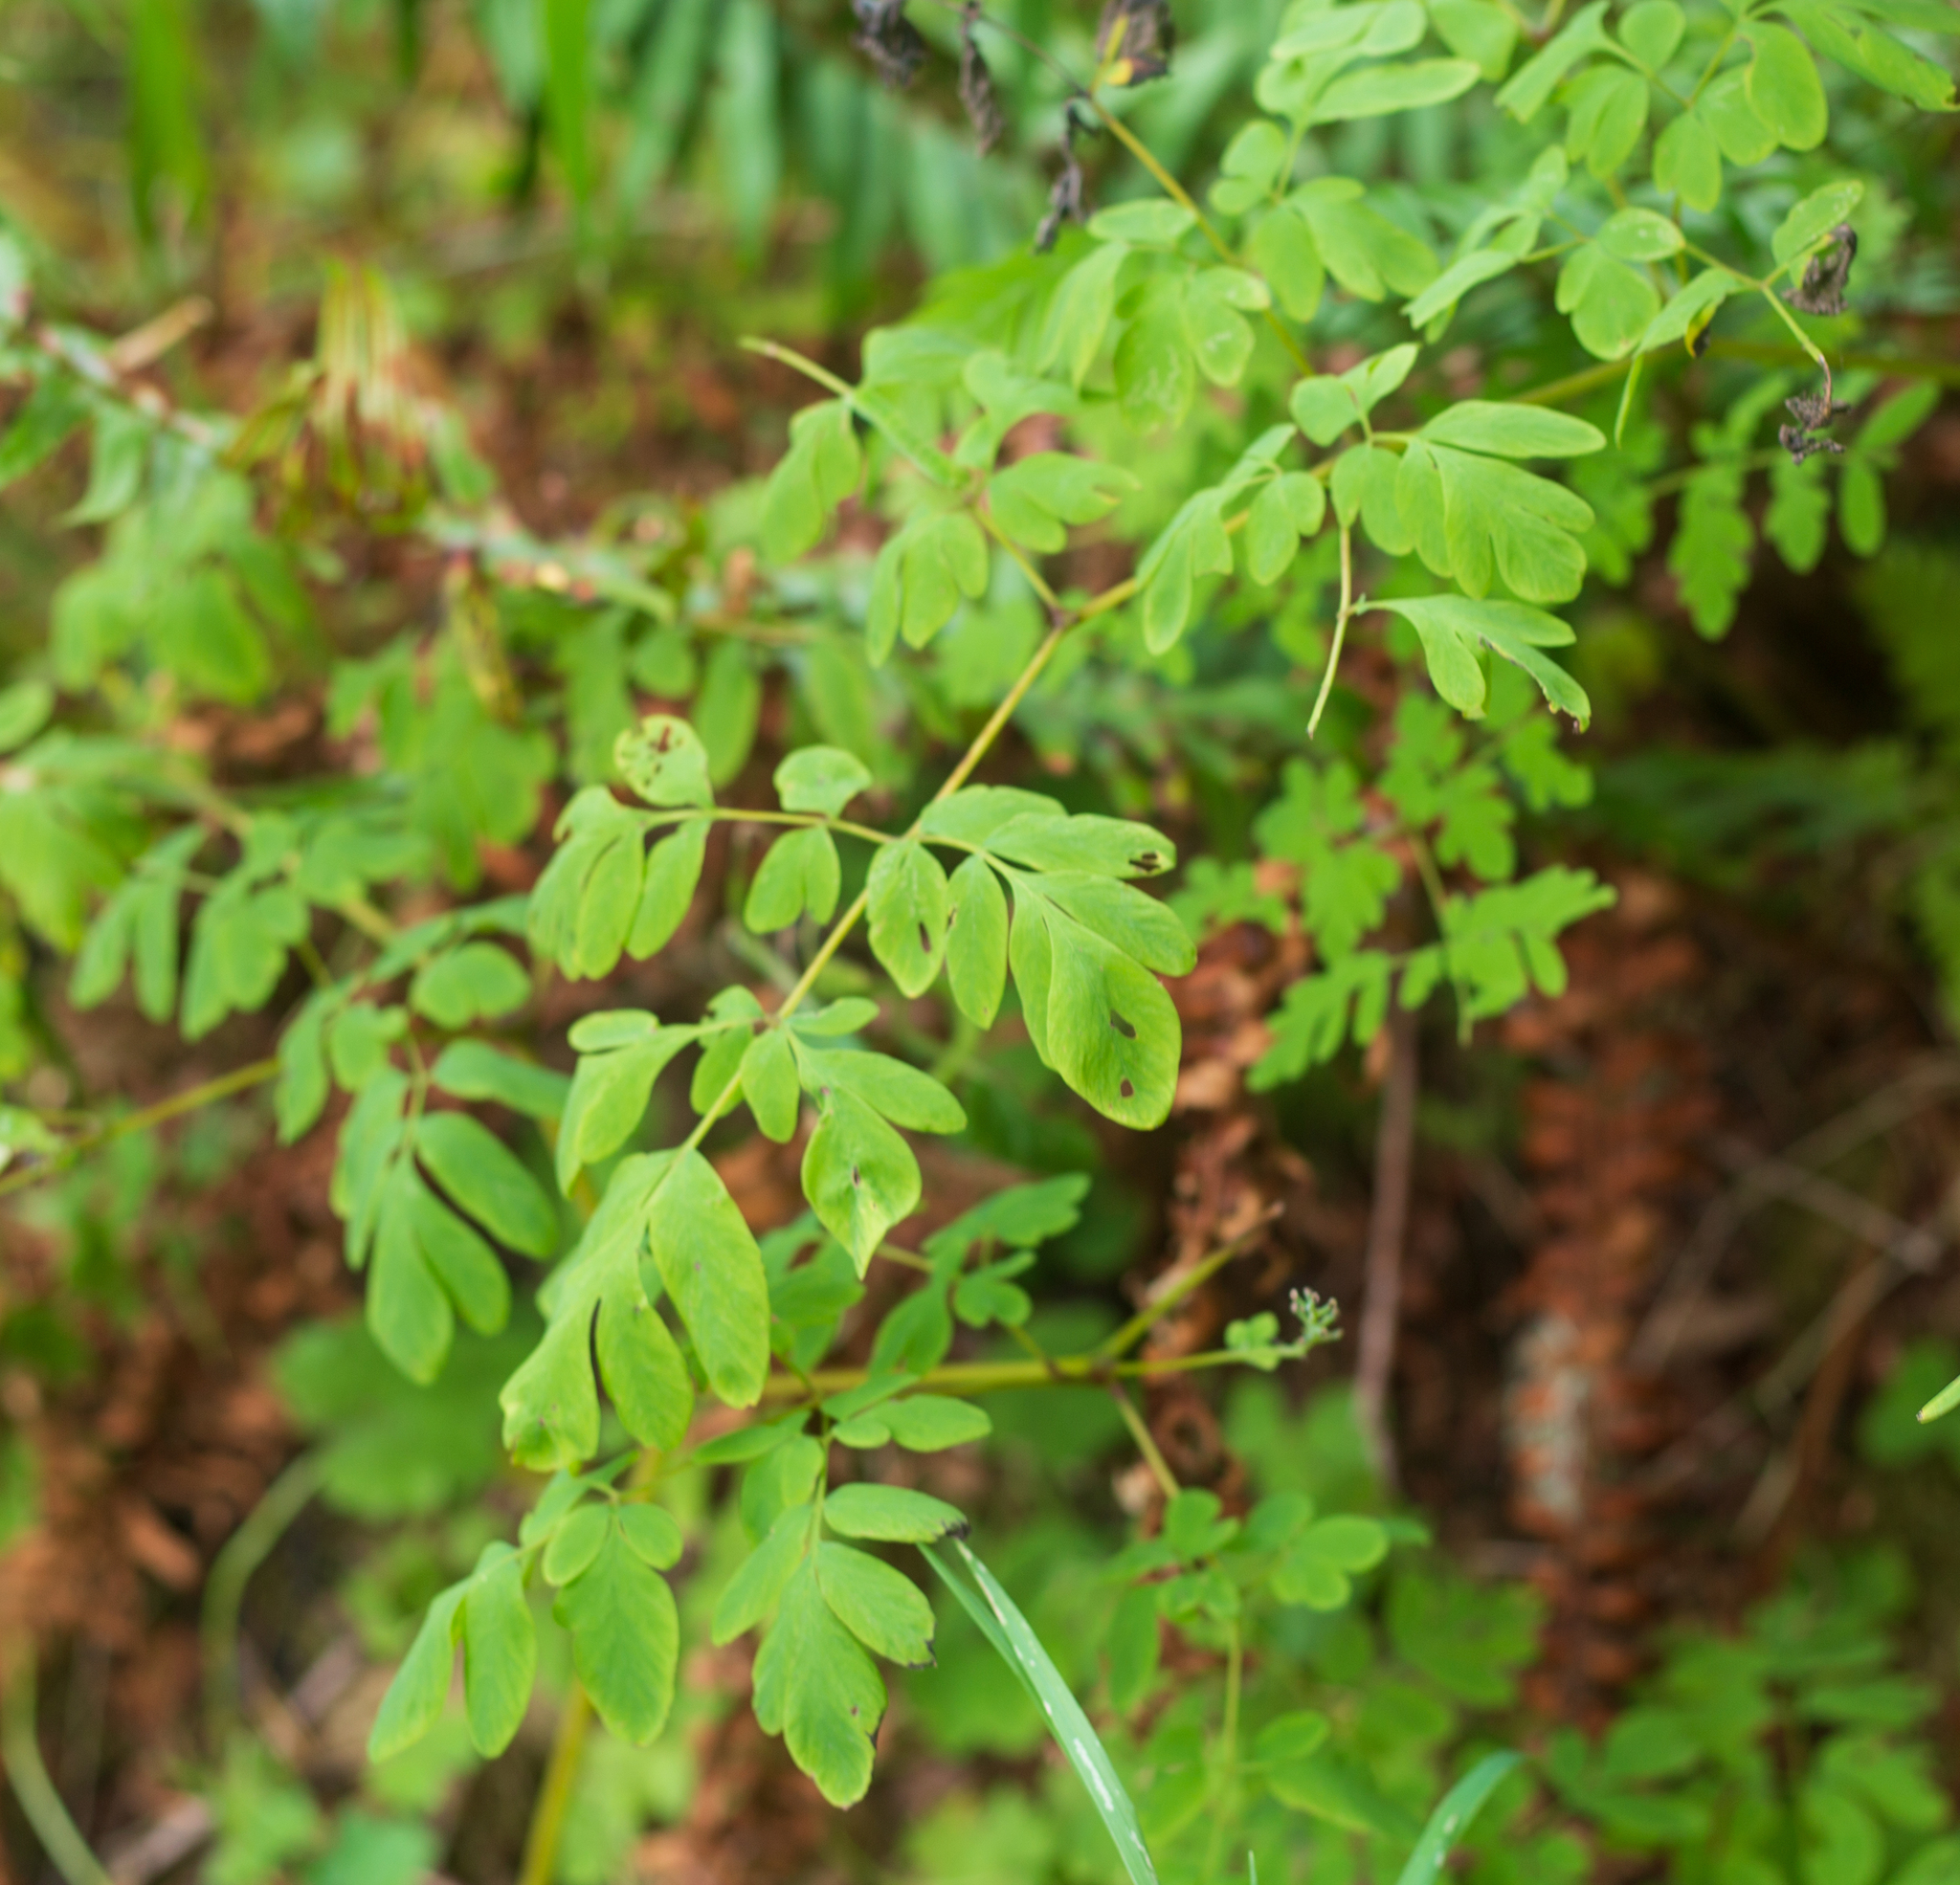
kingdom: Plantae
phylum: Tracheophyta
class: Magnoliopsida
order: Ranunculales
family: Papaveraceae
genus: Corydalis
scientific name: Corydalis scouleri
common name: Scouler's corydalis
